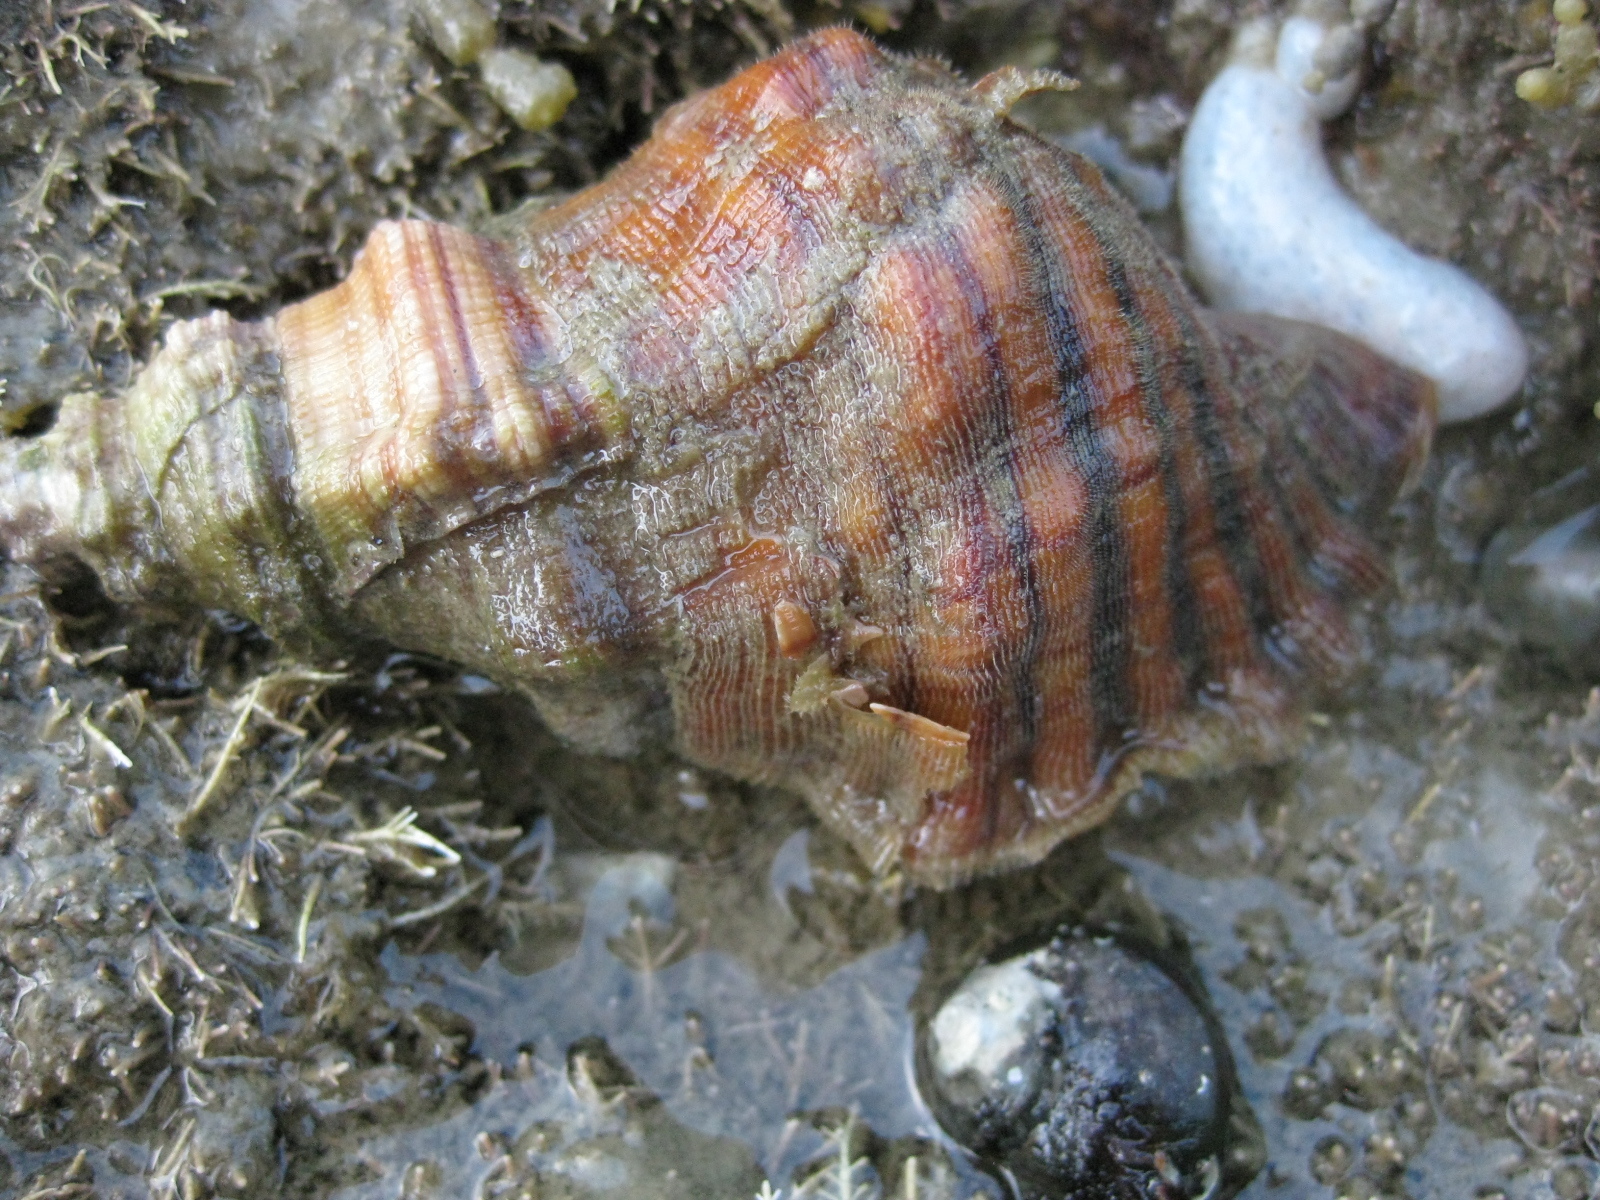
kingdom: Animalia
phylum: Mollusca
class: Gastropoda
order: Littorinimorpha
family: Cymatiidae
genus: Cabestana
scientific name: Cabestana spengleri
